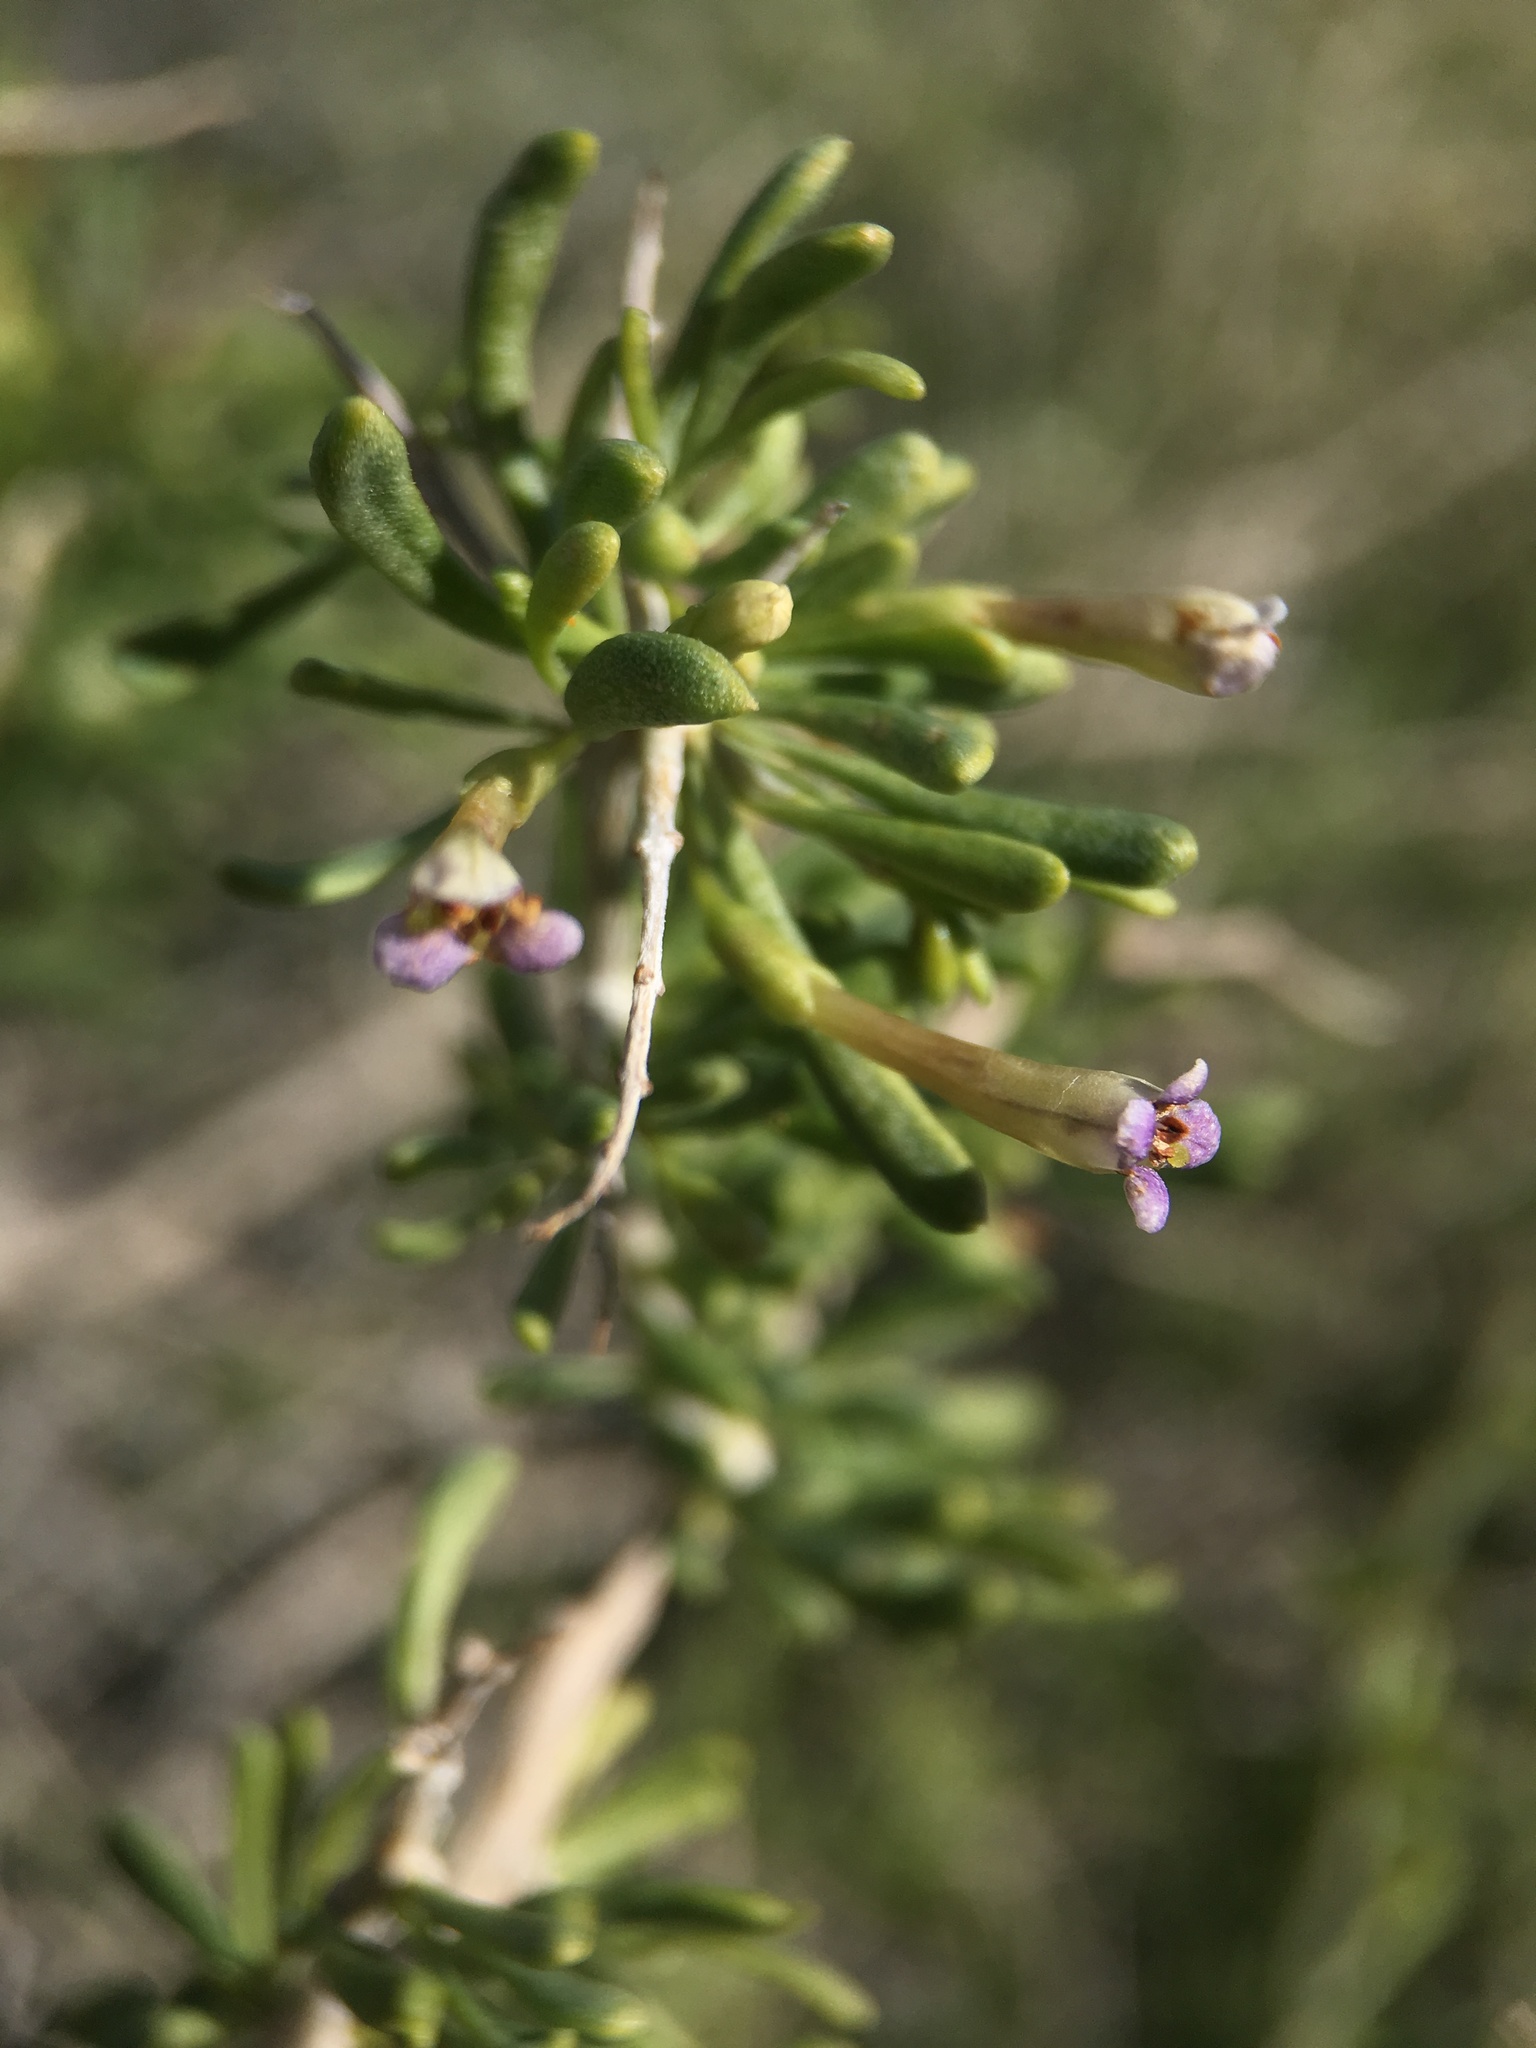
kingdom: Plantae
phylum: Tracheophyta
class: Magnoliopsida
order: Solanales
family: Solanaceae
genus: Lycium
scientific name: Lycium andersonii
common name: Water-jacket
